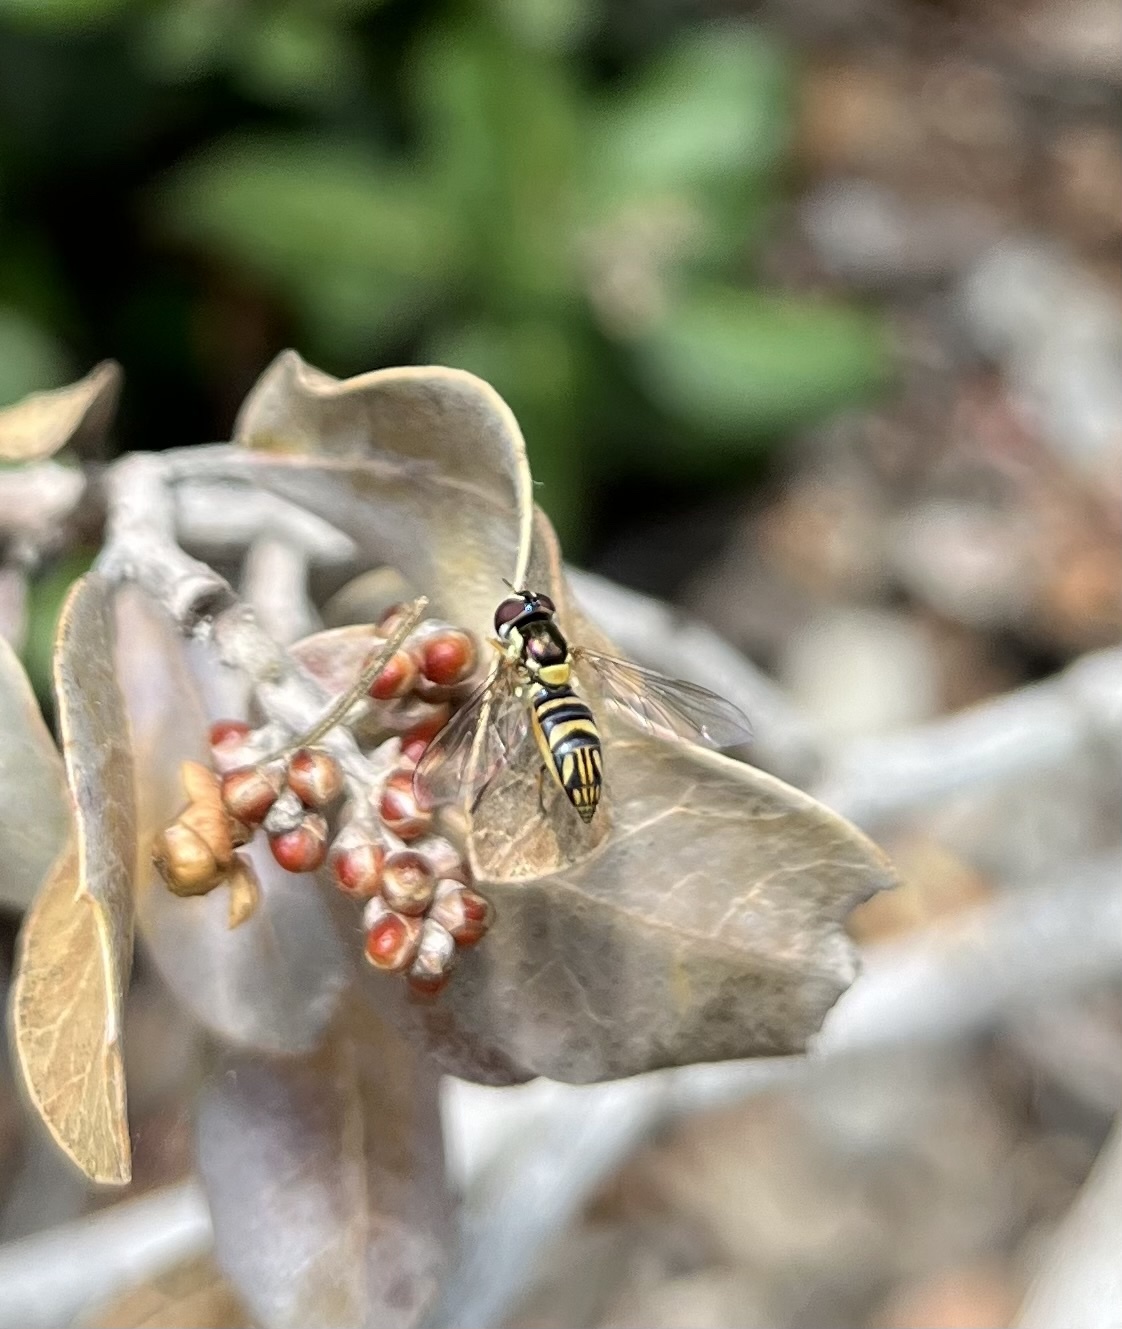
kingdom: Animalia
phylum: Arthropoda
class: Insecta
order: Diptera
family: Syrphidae
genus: Allograpta
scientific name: Allograpta obliqua
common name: Common oblique syrphid
